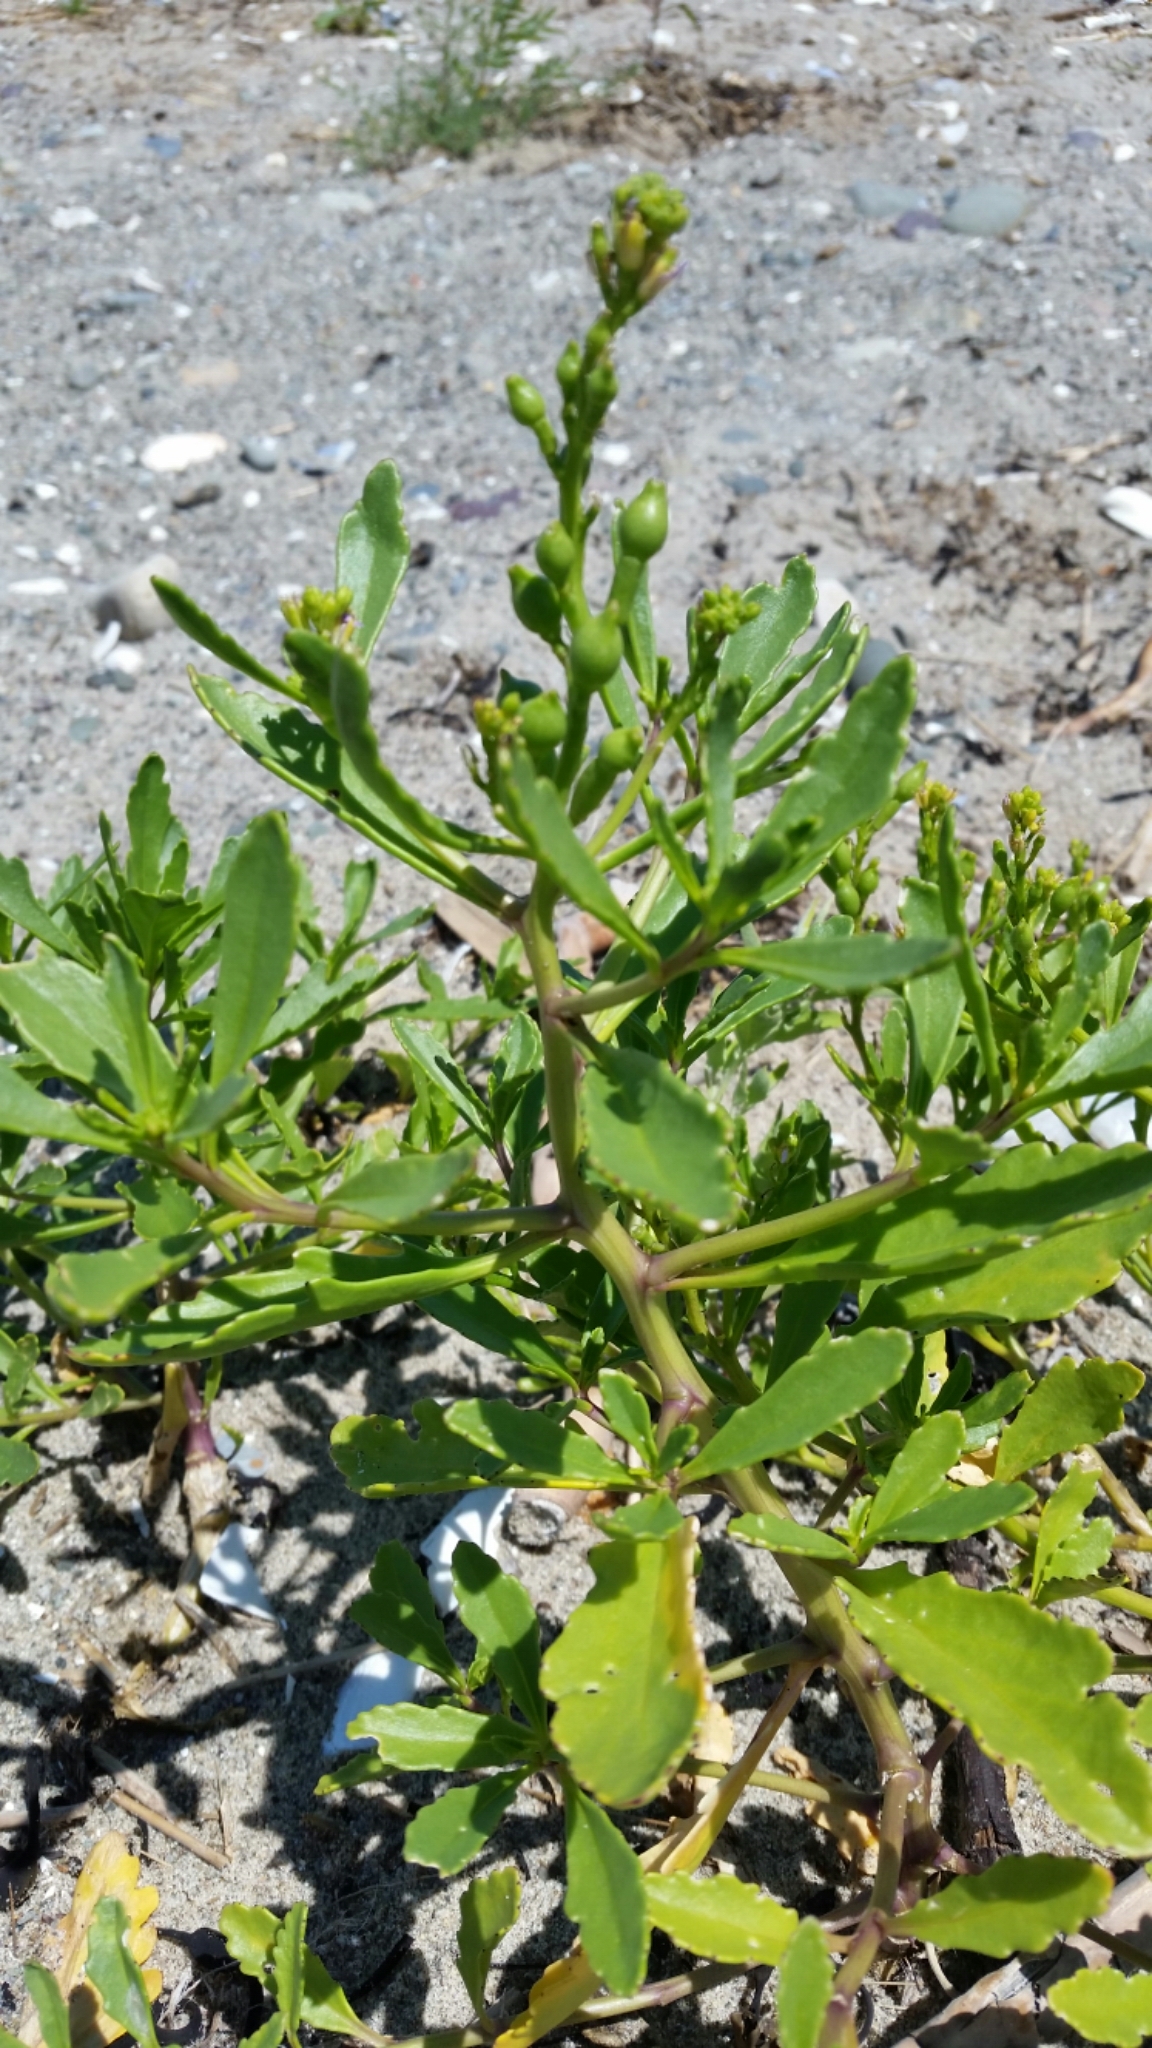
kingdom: Plantae
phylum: Tracheophyta
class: Magnoliopsida
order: Brassicales
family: Brassicaceae
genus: Cakile
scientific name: Cakile edentula
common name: American sea rocket
